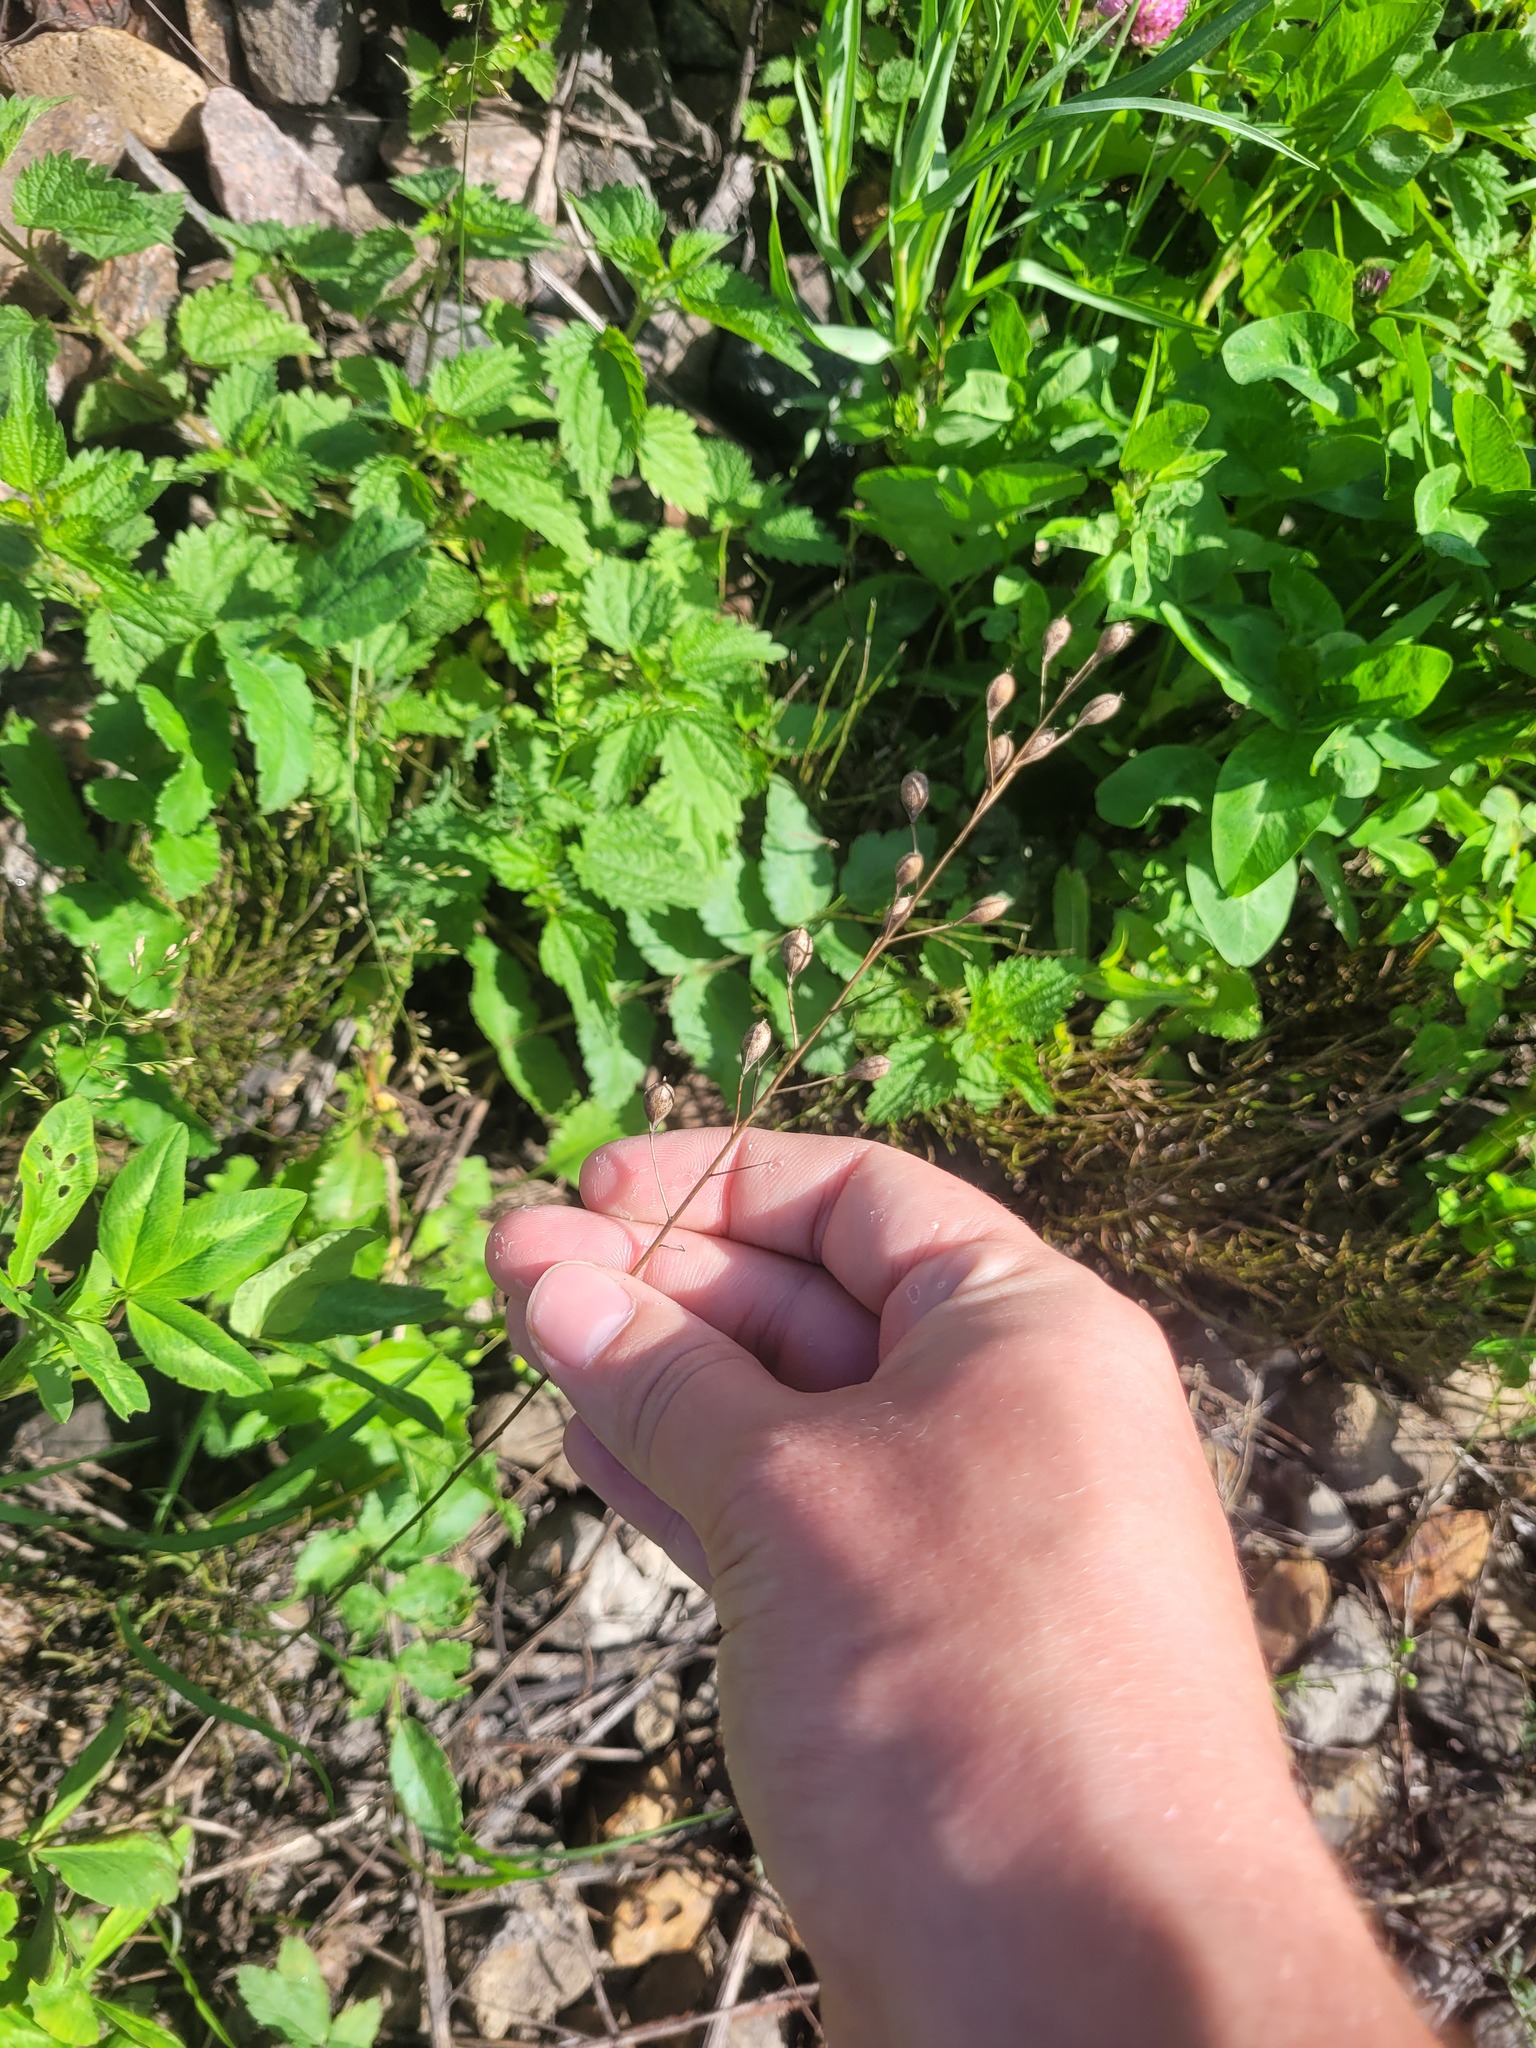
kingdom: Plantae
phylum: Tracheophyta
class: Magnoliopsida
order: Brassicales
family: Brassicaceae
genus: Camelina
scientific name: Camelina sativa
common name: Gold-of-pleasure
